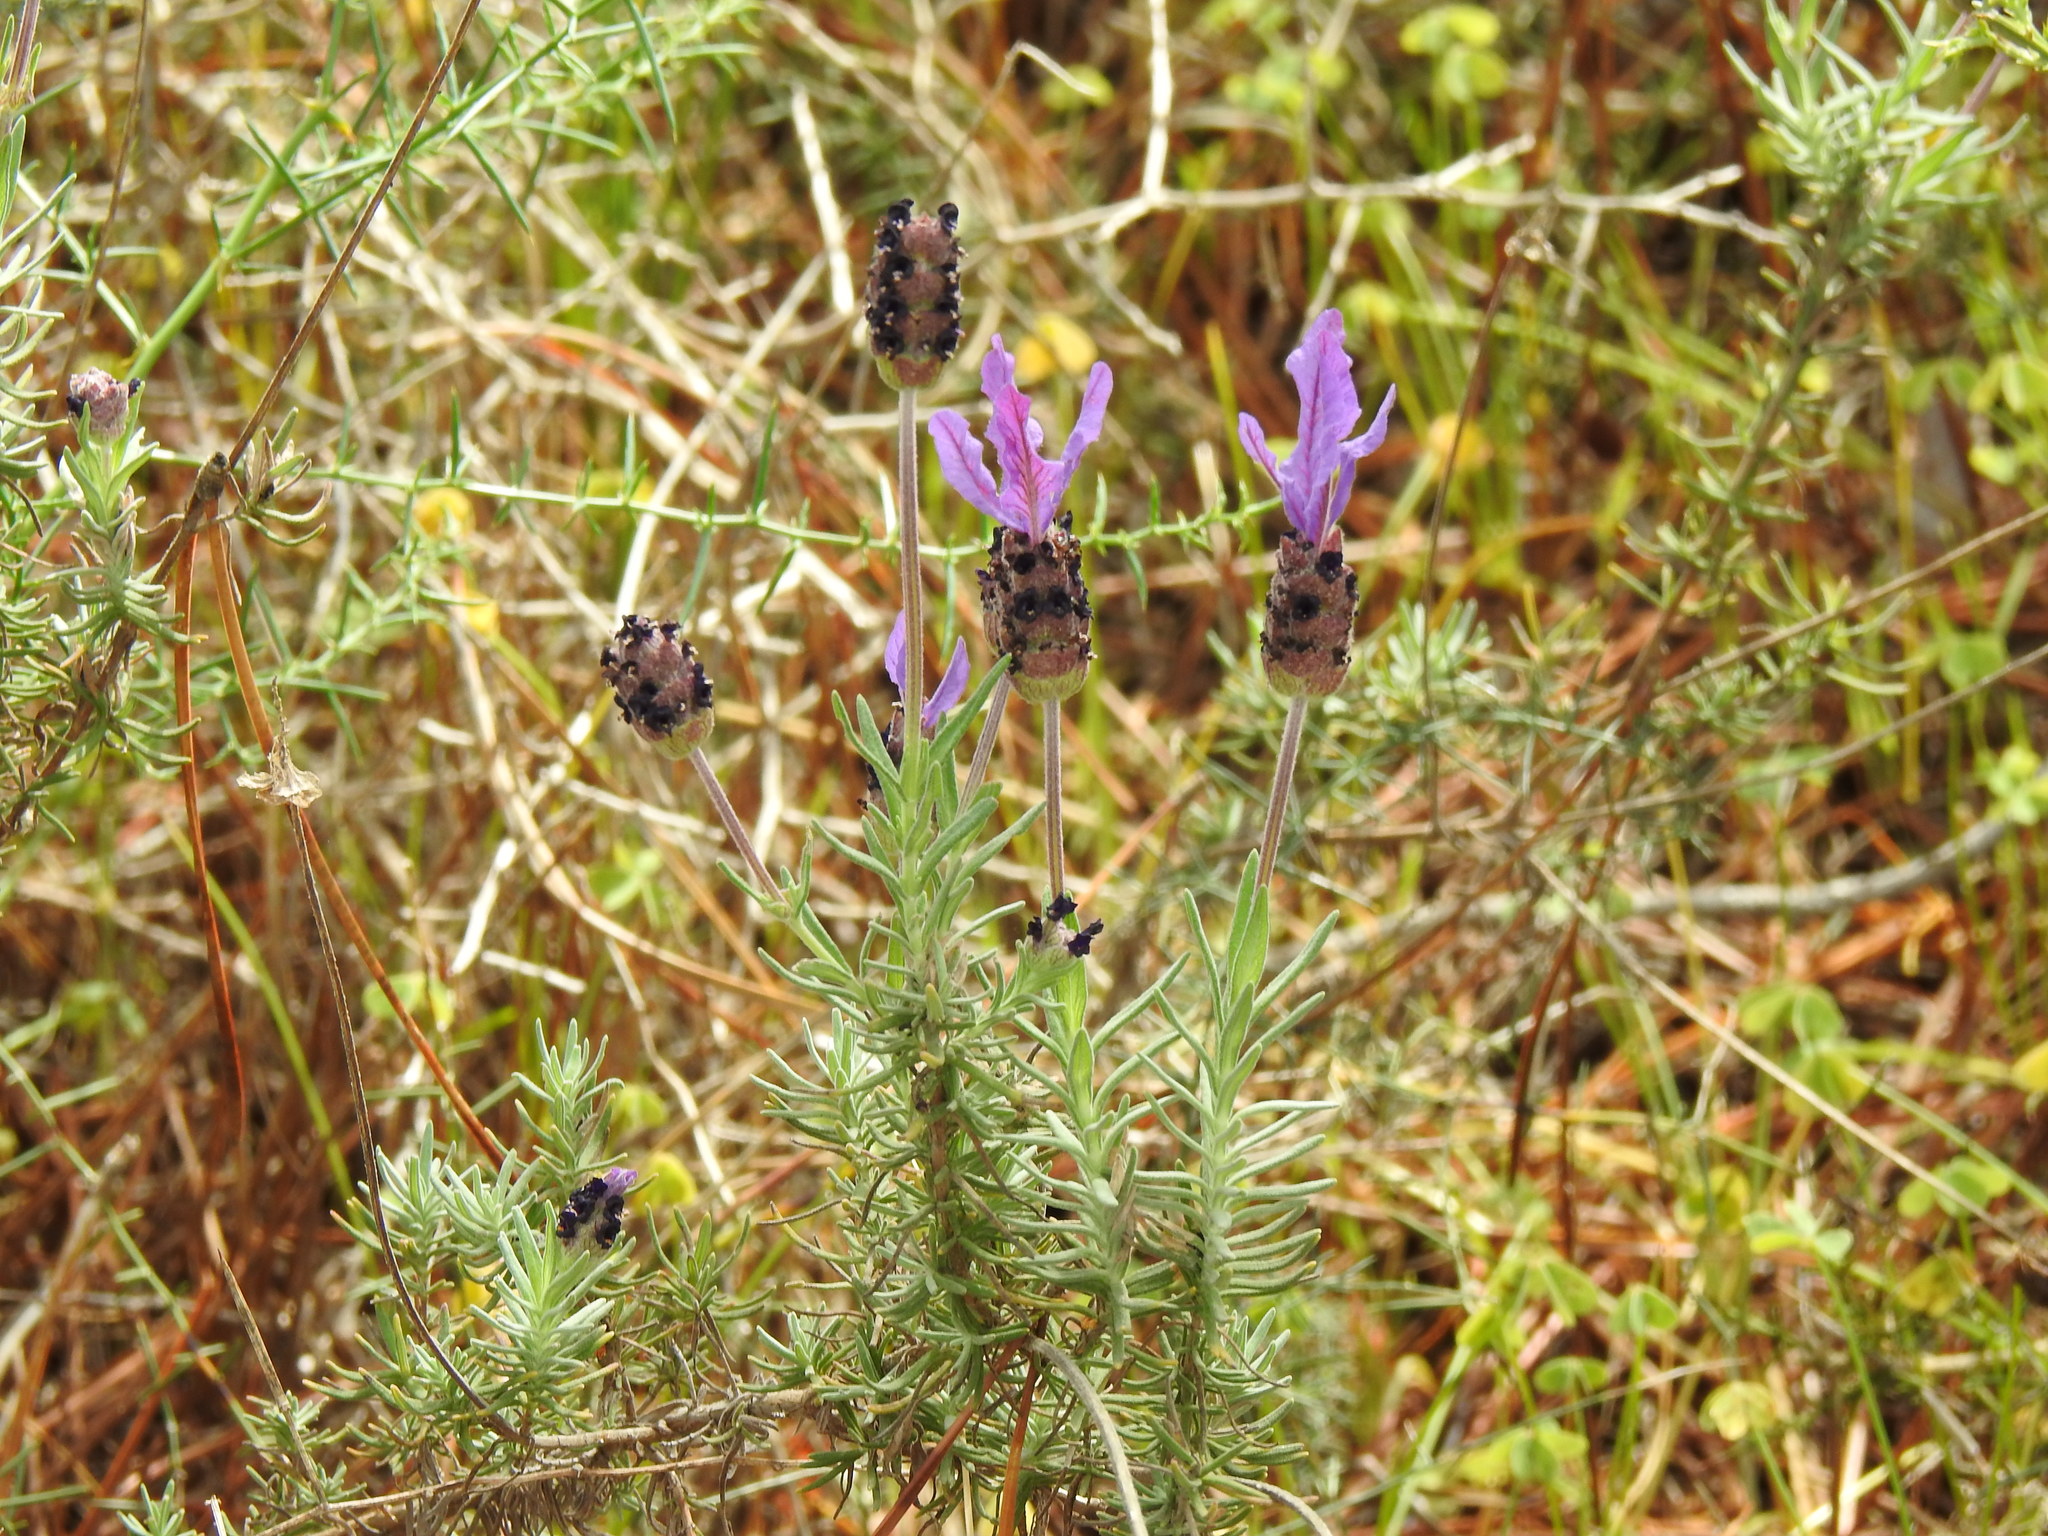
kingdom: Plantae
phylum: Tracheophyta
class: Magnoliopsida
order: Lamiales
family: Lamiaceae
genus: Lavandula
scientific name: Lavandula pedunculata
